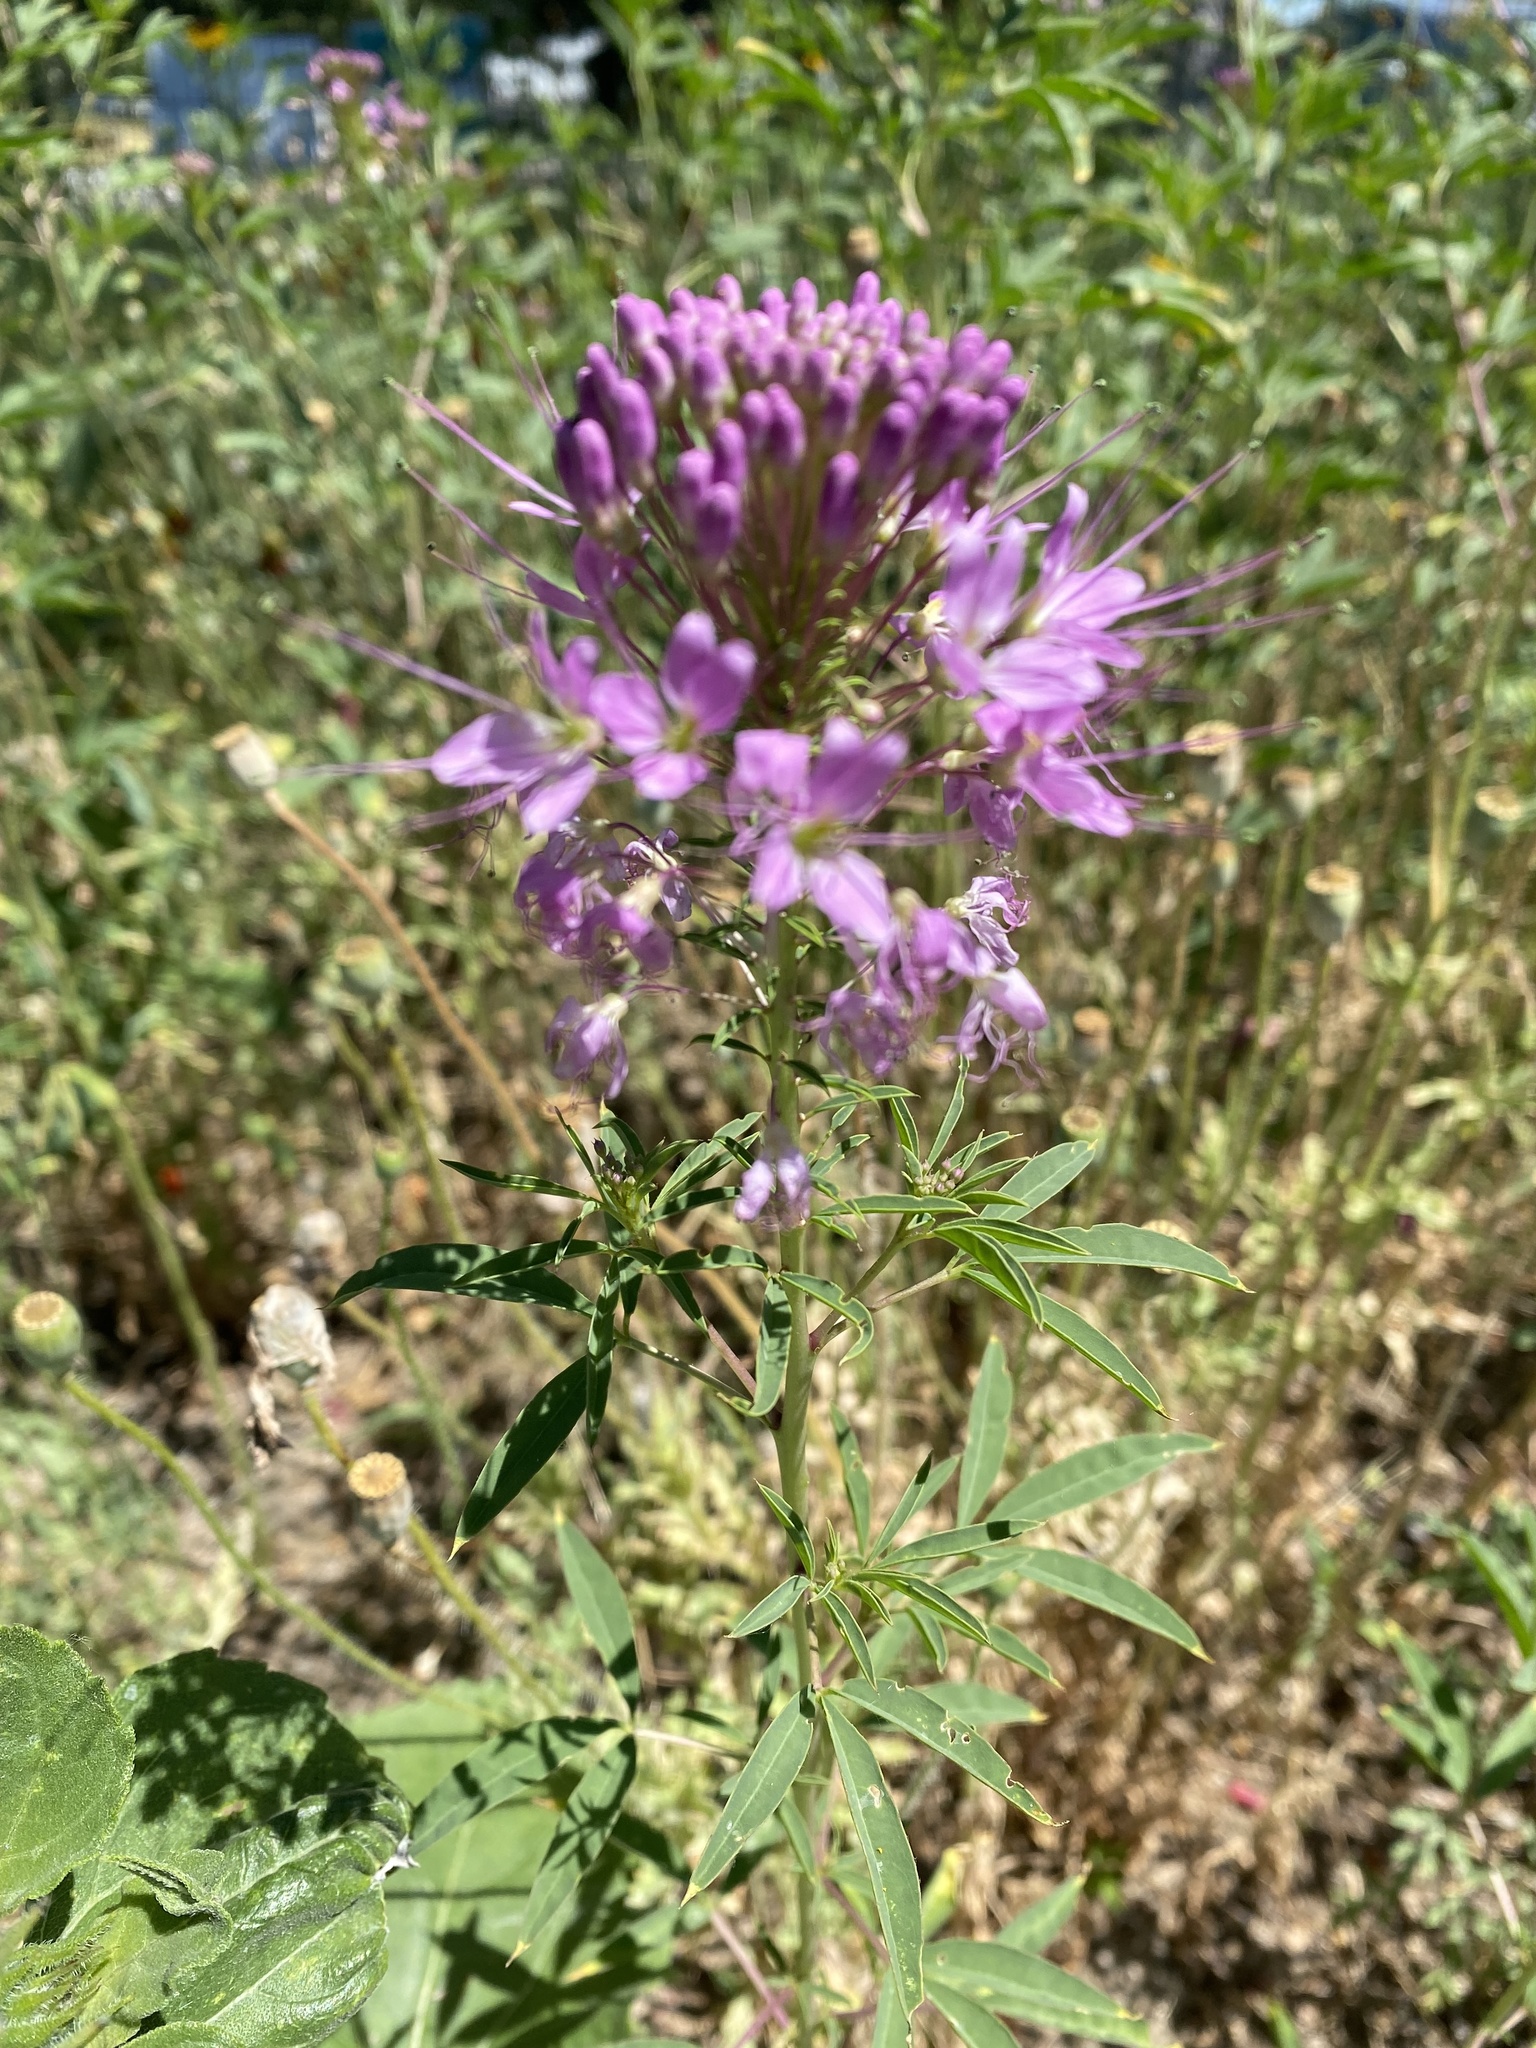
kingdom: Plantae
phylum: Tracheophyta
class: Magnoliopsida
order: Brassicales
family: Cleomaceae
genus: Cleomella
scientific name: Cleomella serrulata
